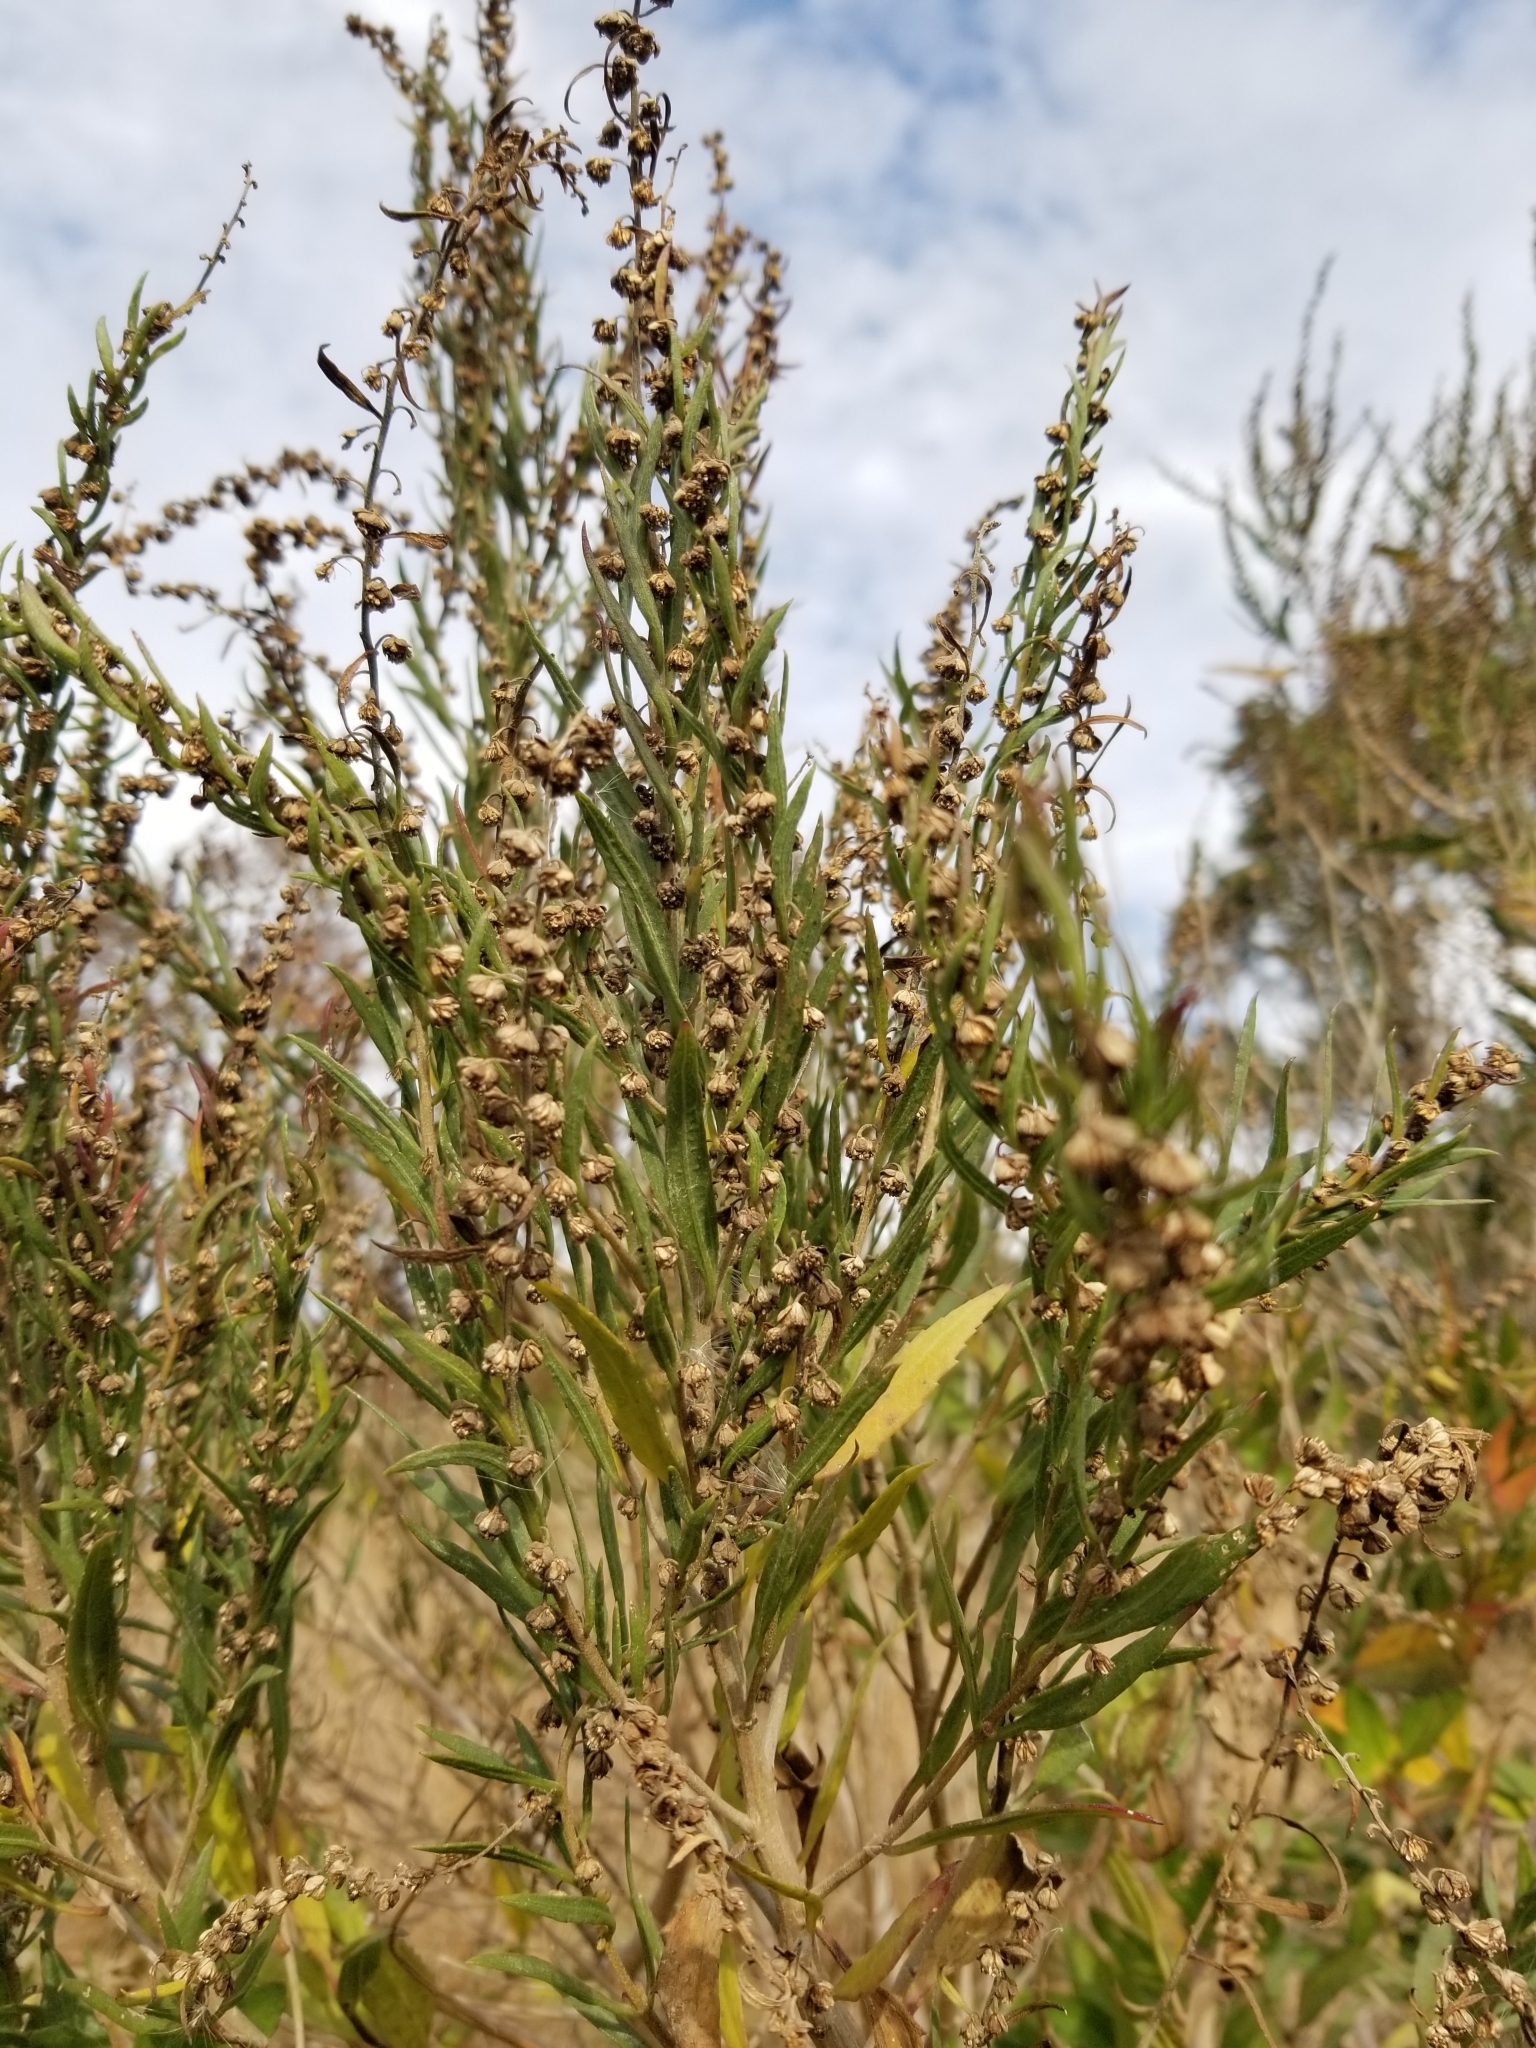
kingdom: Plantae
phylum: Tracheophyta
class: Magnoliopsida
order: Asterales
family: Asteraceae
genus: Iva
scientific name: Iva frutescens
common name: Big-leaved marsh-elder
